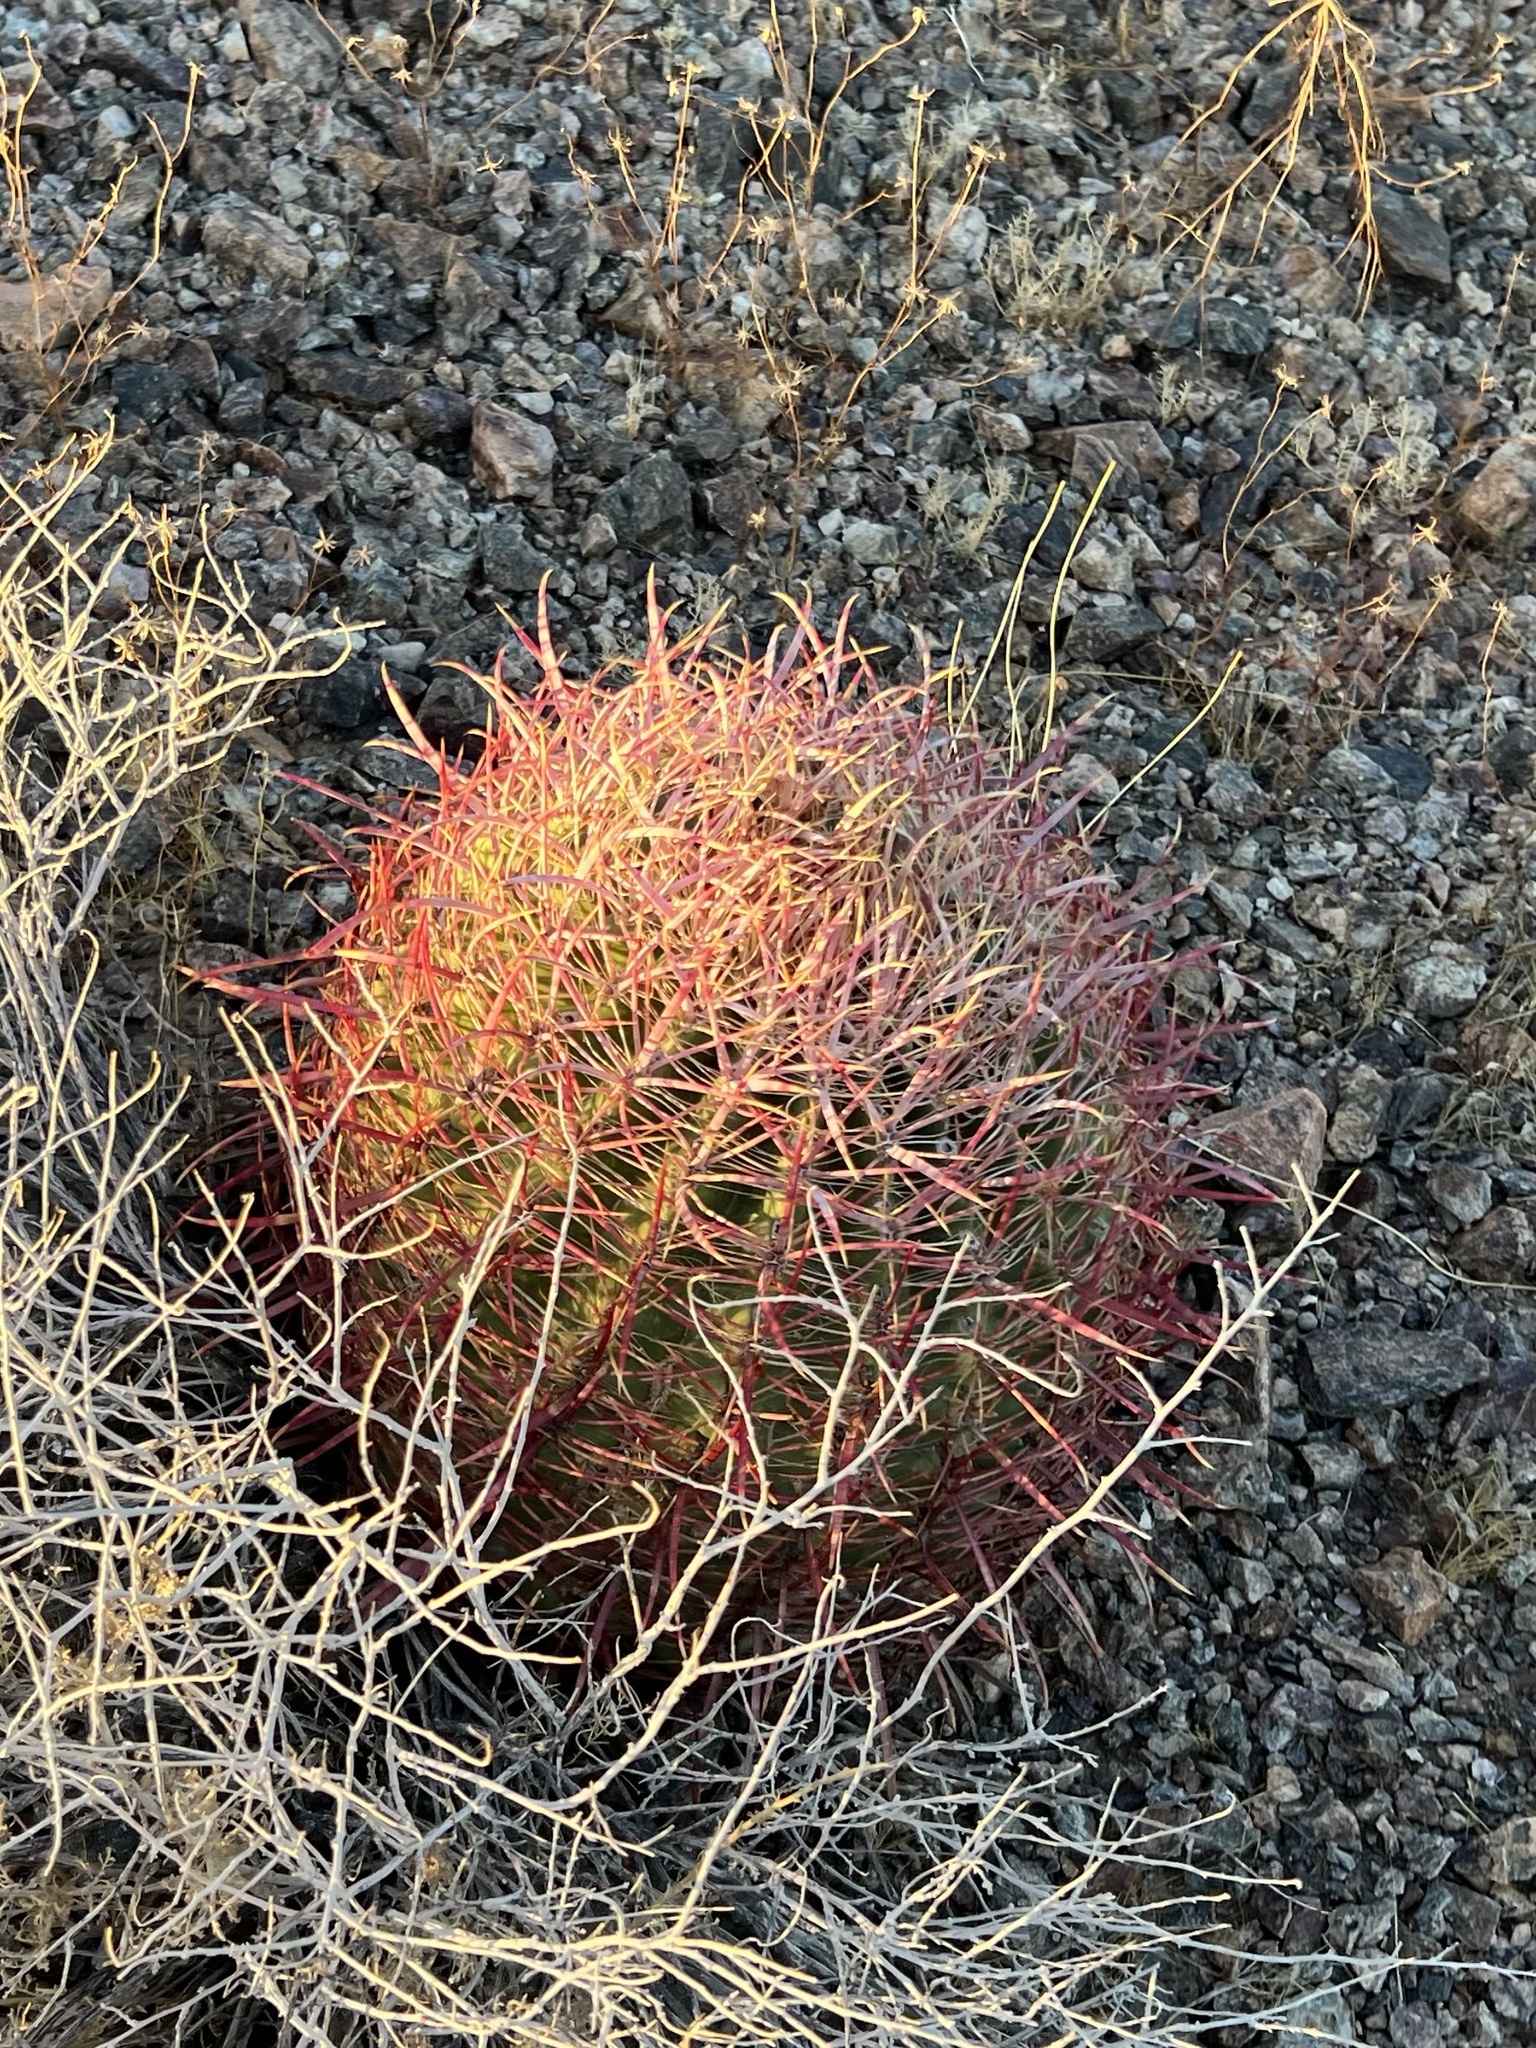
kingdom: Plantae
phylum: Tracheophyta
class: Magnoliopsida
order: Caryophyllales
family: Cactaceae
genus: Ferocactus
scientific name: Ferocactus cylindraceus
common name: California barrel cactus
